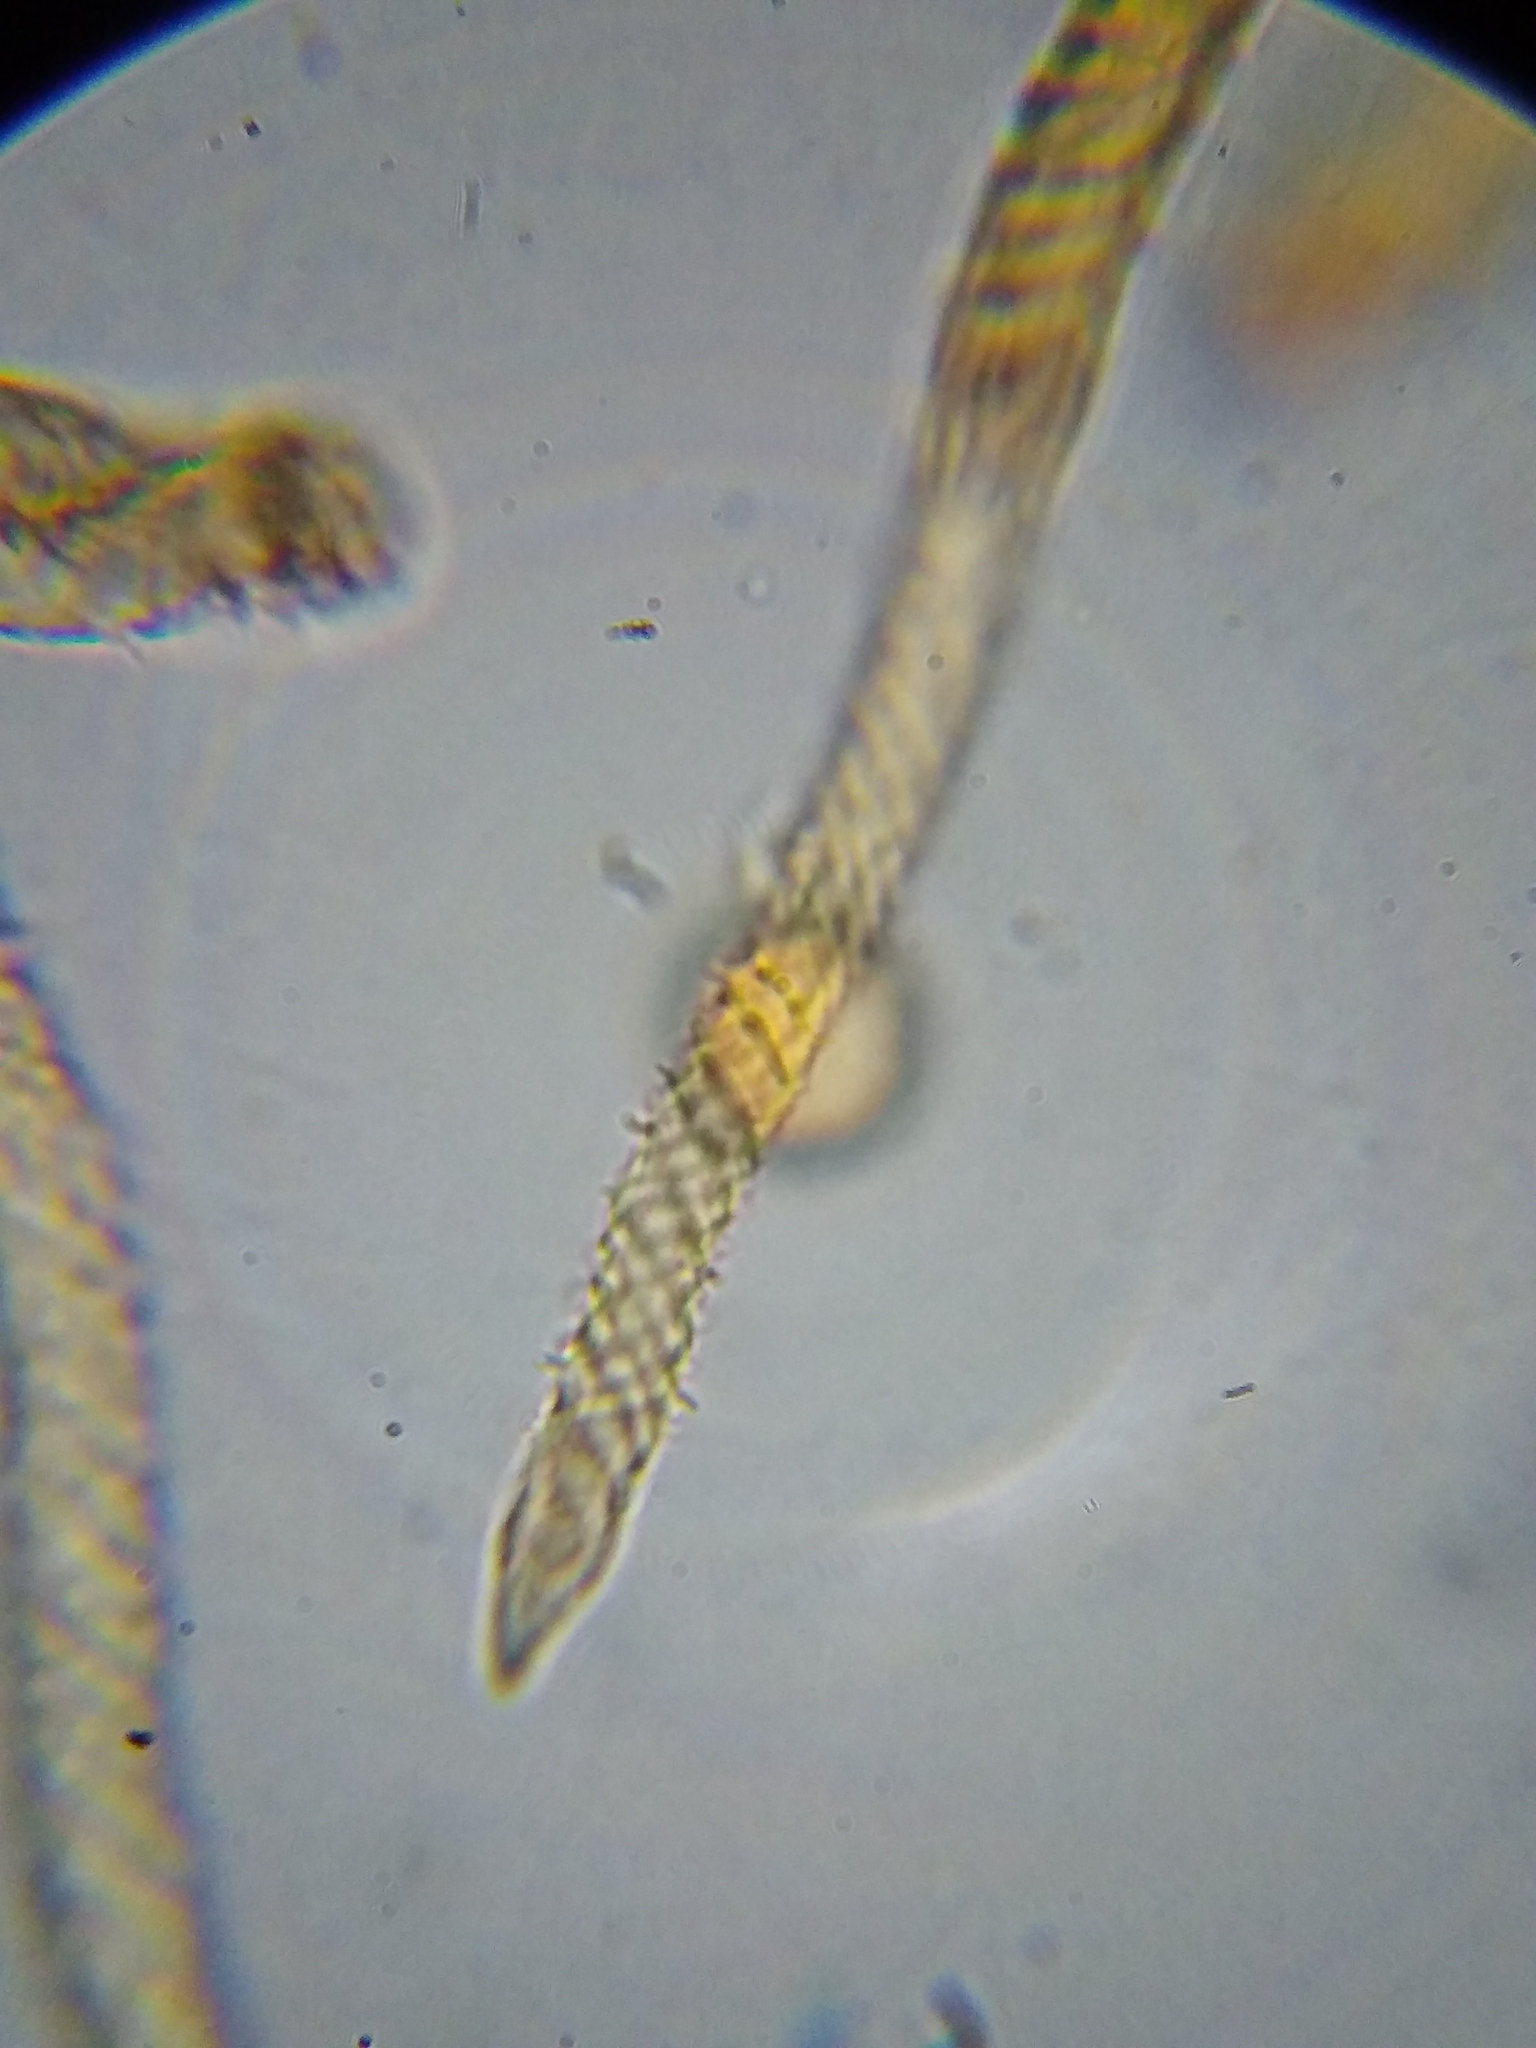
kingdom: Protozoa
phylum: Mycetozoa
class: Myxomycetes
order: Trichiales
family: Trichiaceae
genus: Trichia
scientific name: Trichia erecta
